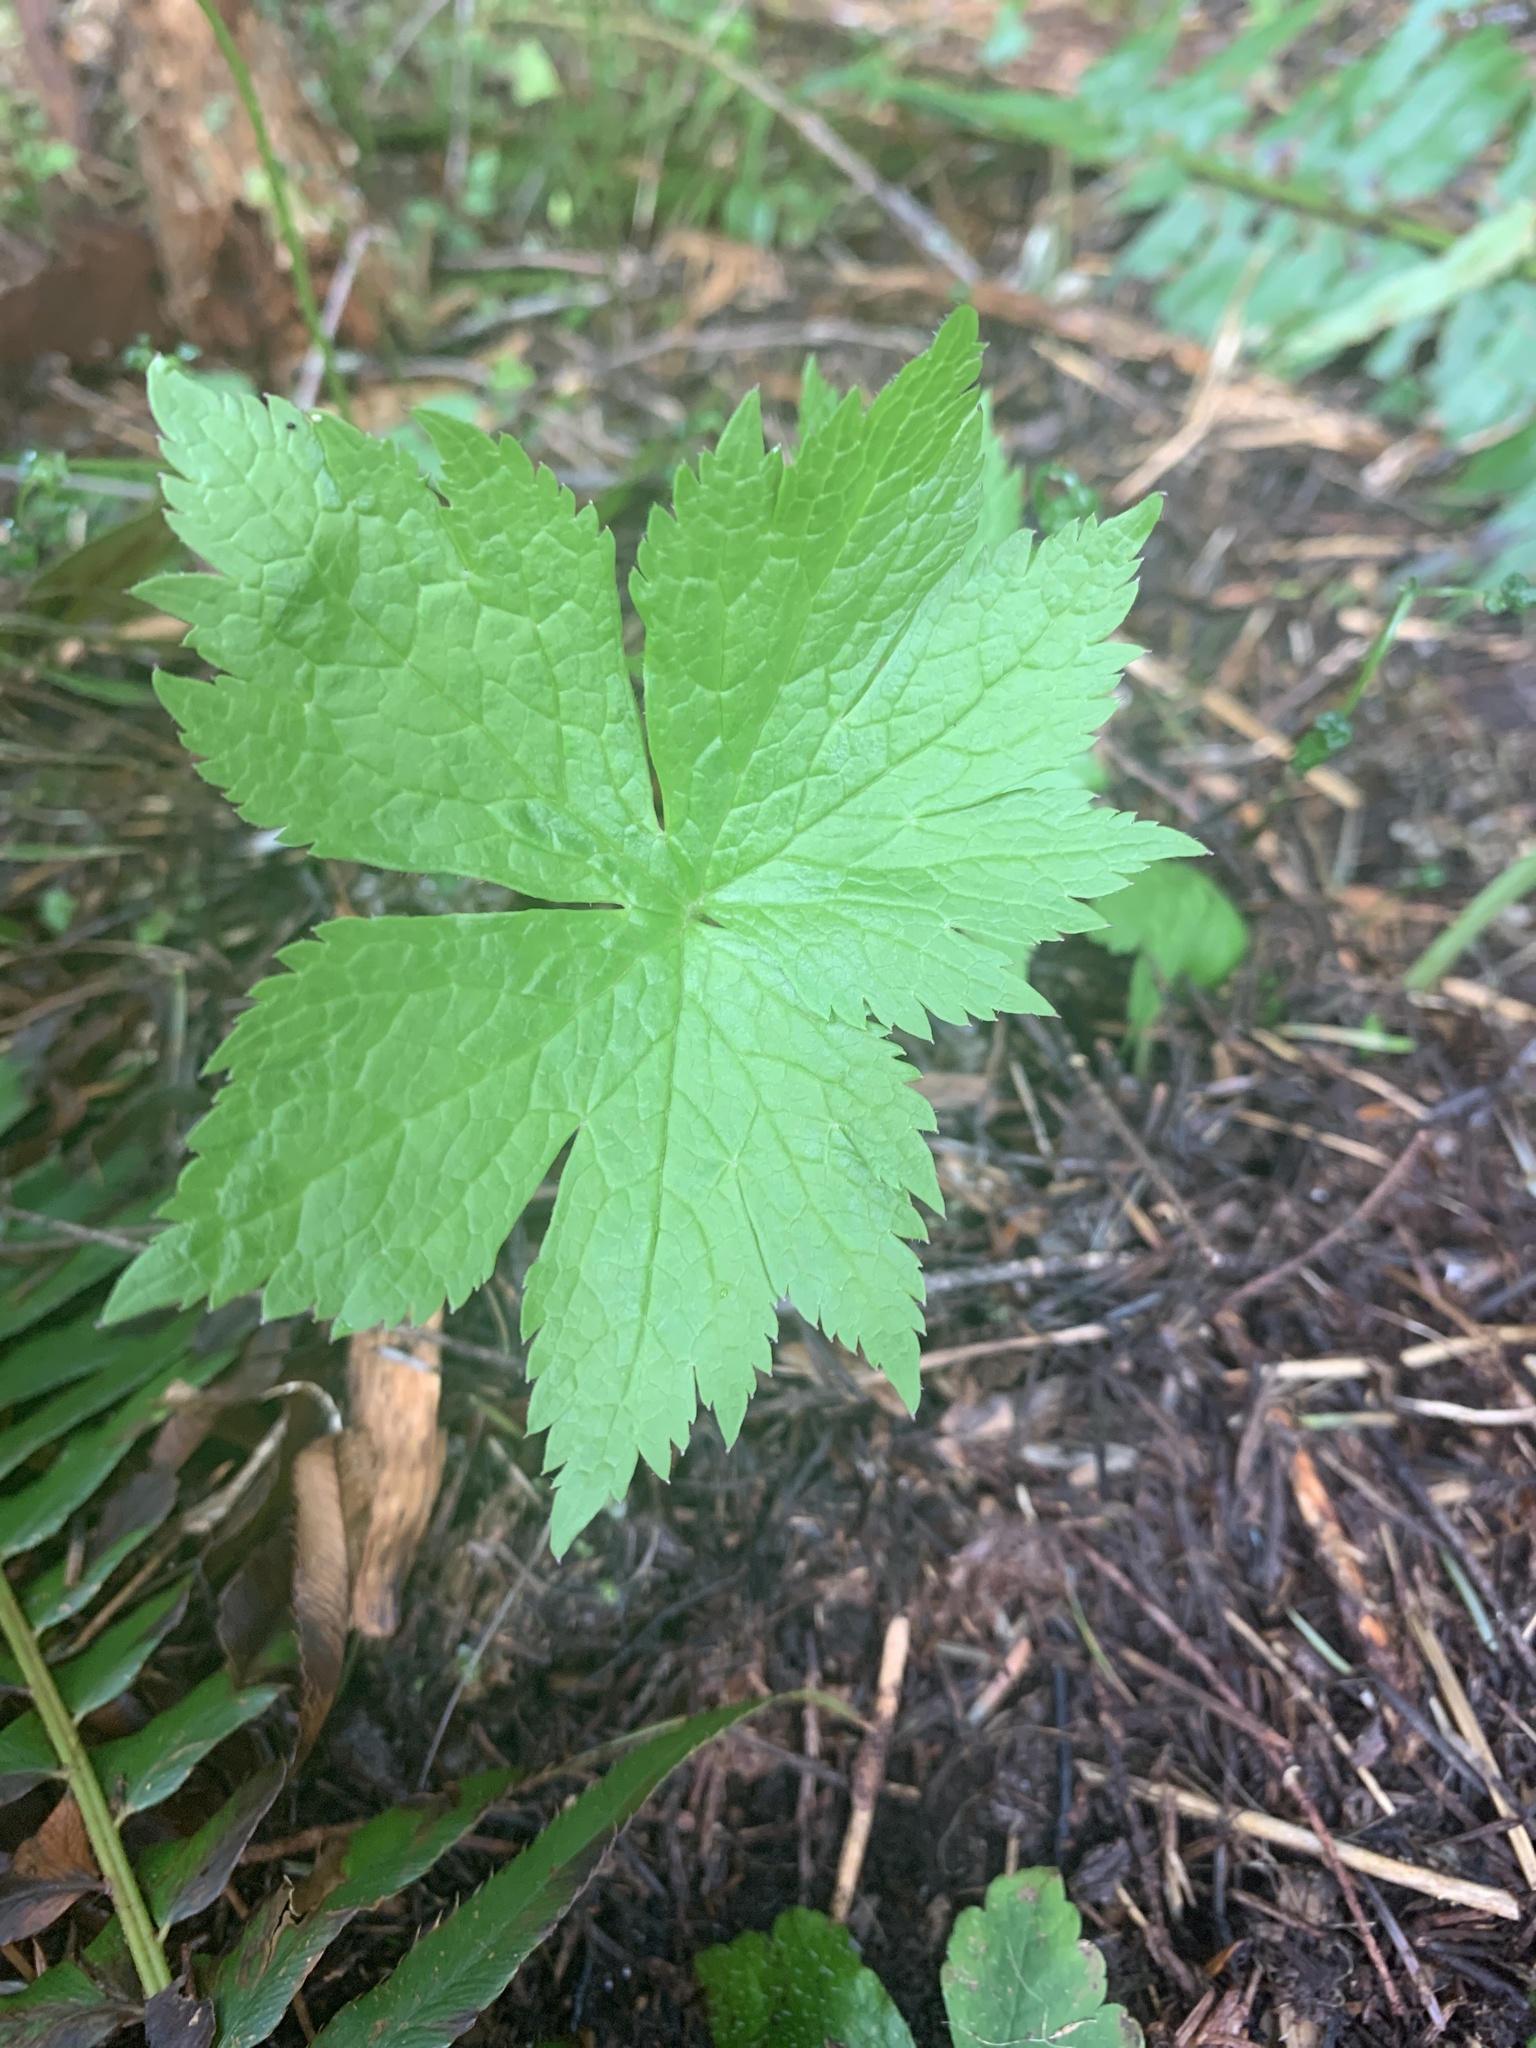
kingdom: Plantae
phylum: Tracheophyta
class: Magnoliopsida
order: Ranunculales
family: Ranunculaceae
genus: Trautvetteria
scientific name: Trautvetteria carolinensis
